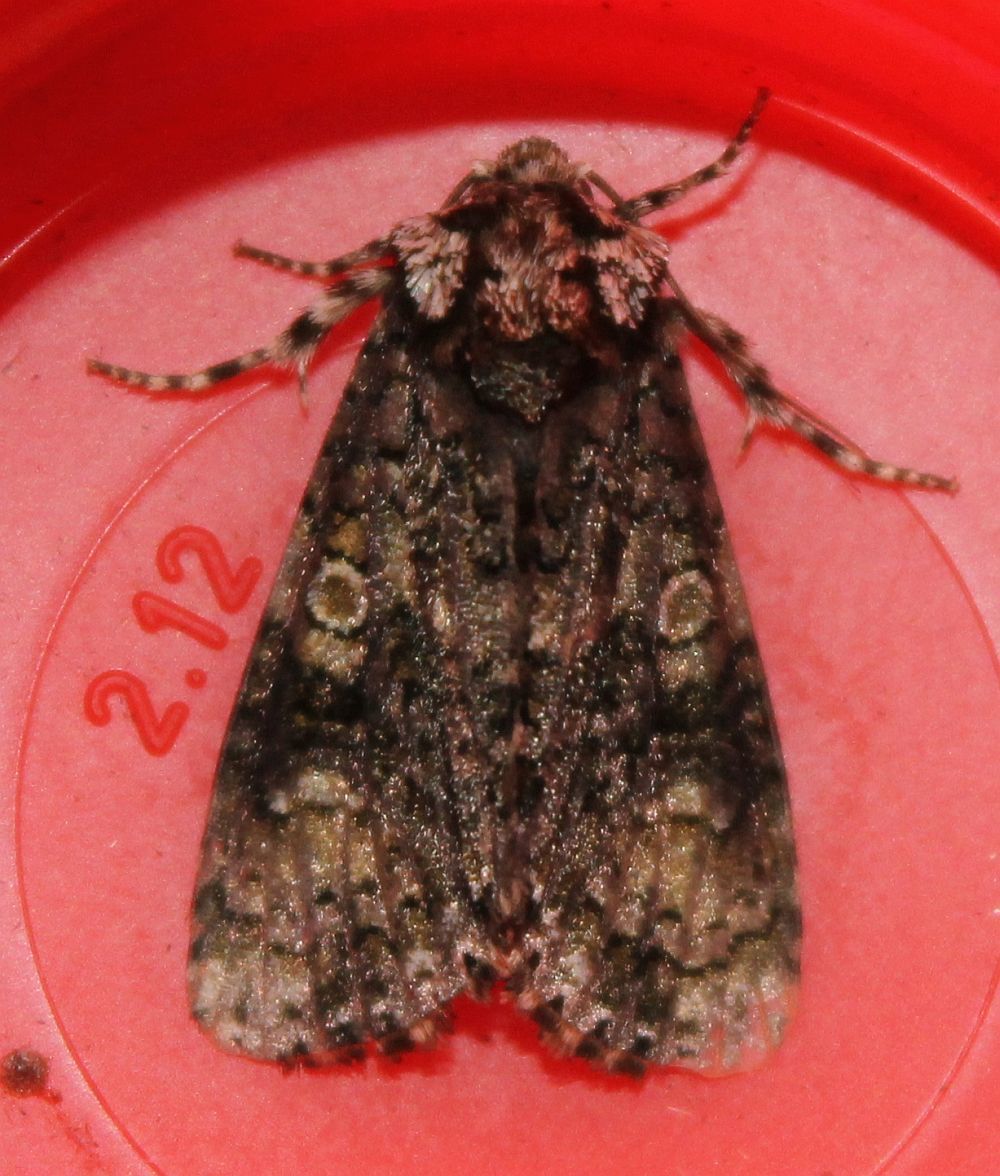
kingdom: Animalia
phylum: Arthropoda
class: Insecta
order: Lepidoptera
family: Noctuidae
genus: Craniophora
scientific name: Craniophora ligustri
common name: Coronet
